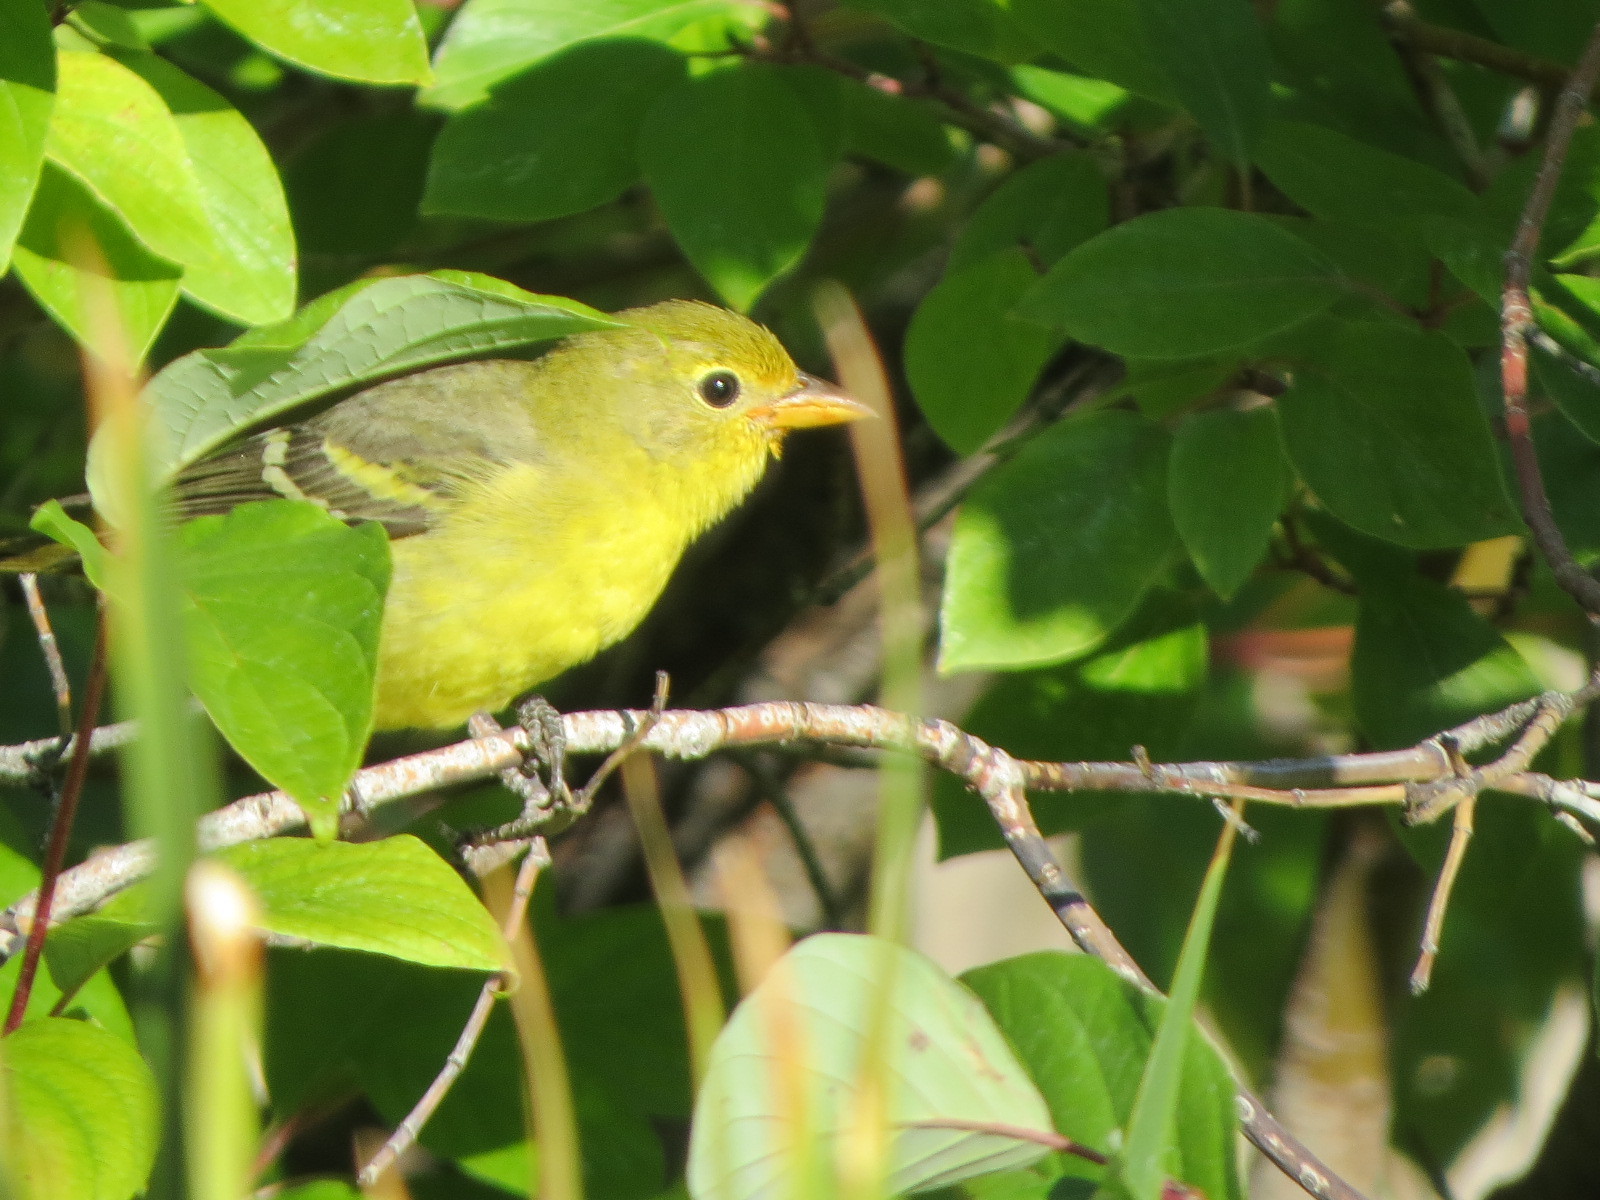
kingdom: Animalia
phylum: Chordata
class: Aves
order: Passeriformes
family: Cardinalidae
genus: Piranga
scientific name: Piranga ludoviciana
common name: Western tanager
